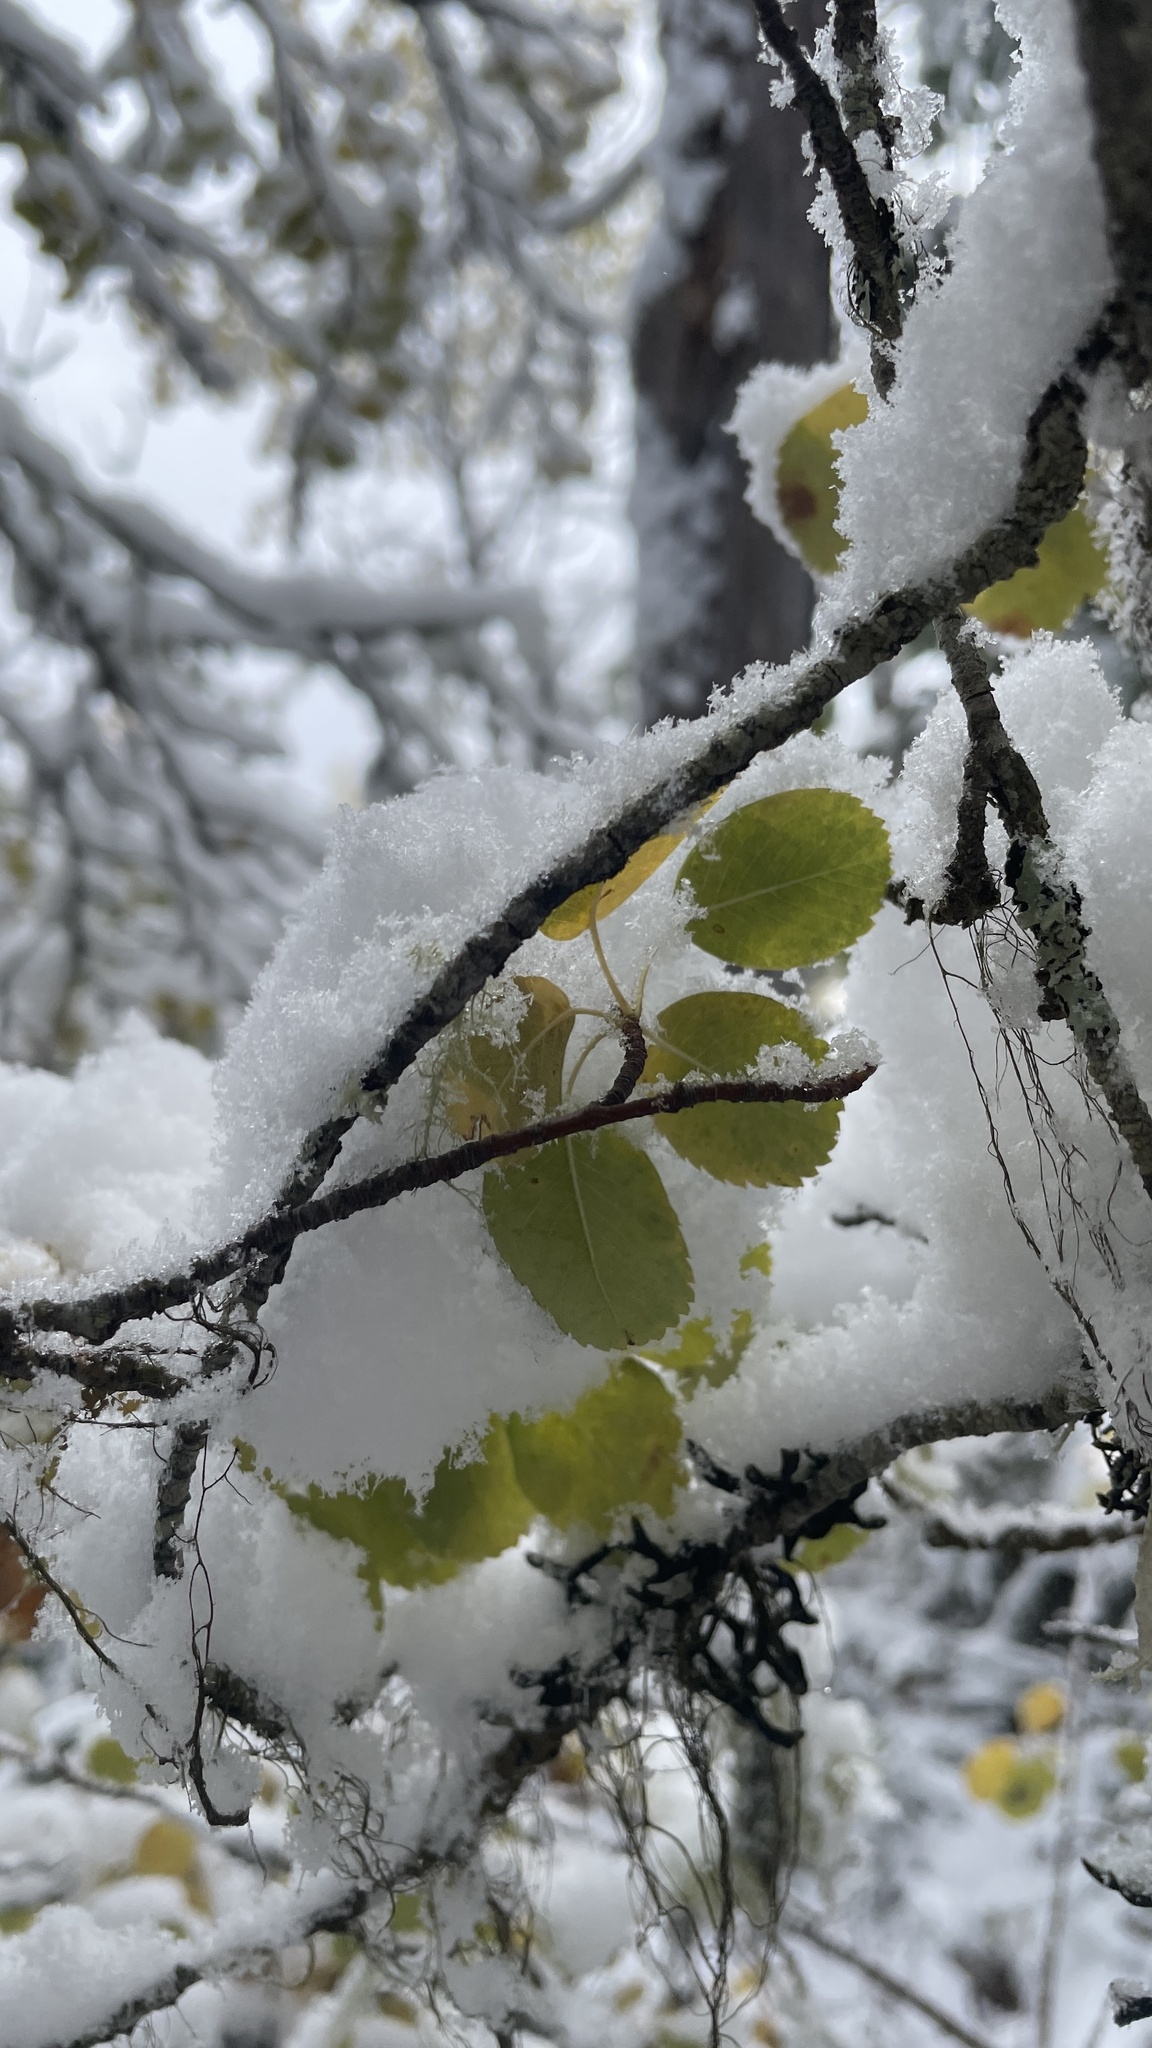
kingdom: Plantae
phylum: Tracheophyta
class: Magnoliopsida
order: Rosales
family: Rosaceae
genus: Amelanchier
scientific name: Amelanchier alnifolia
